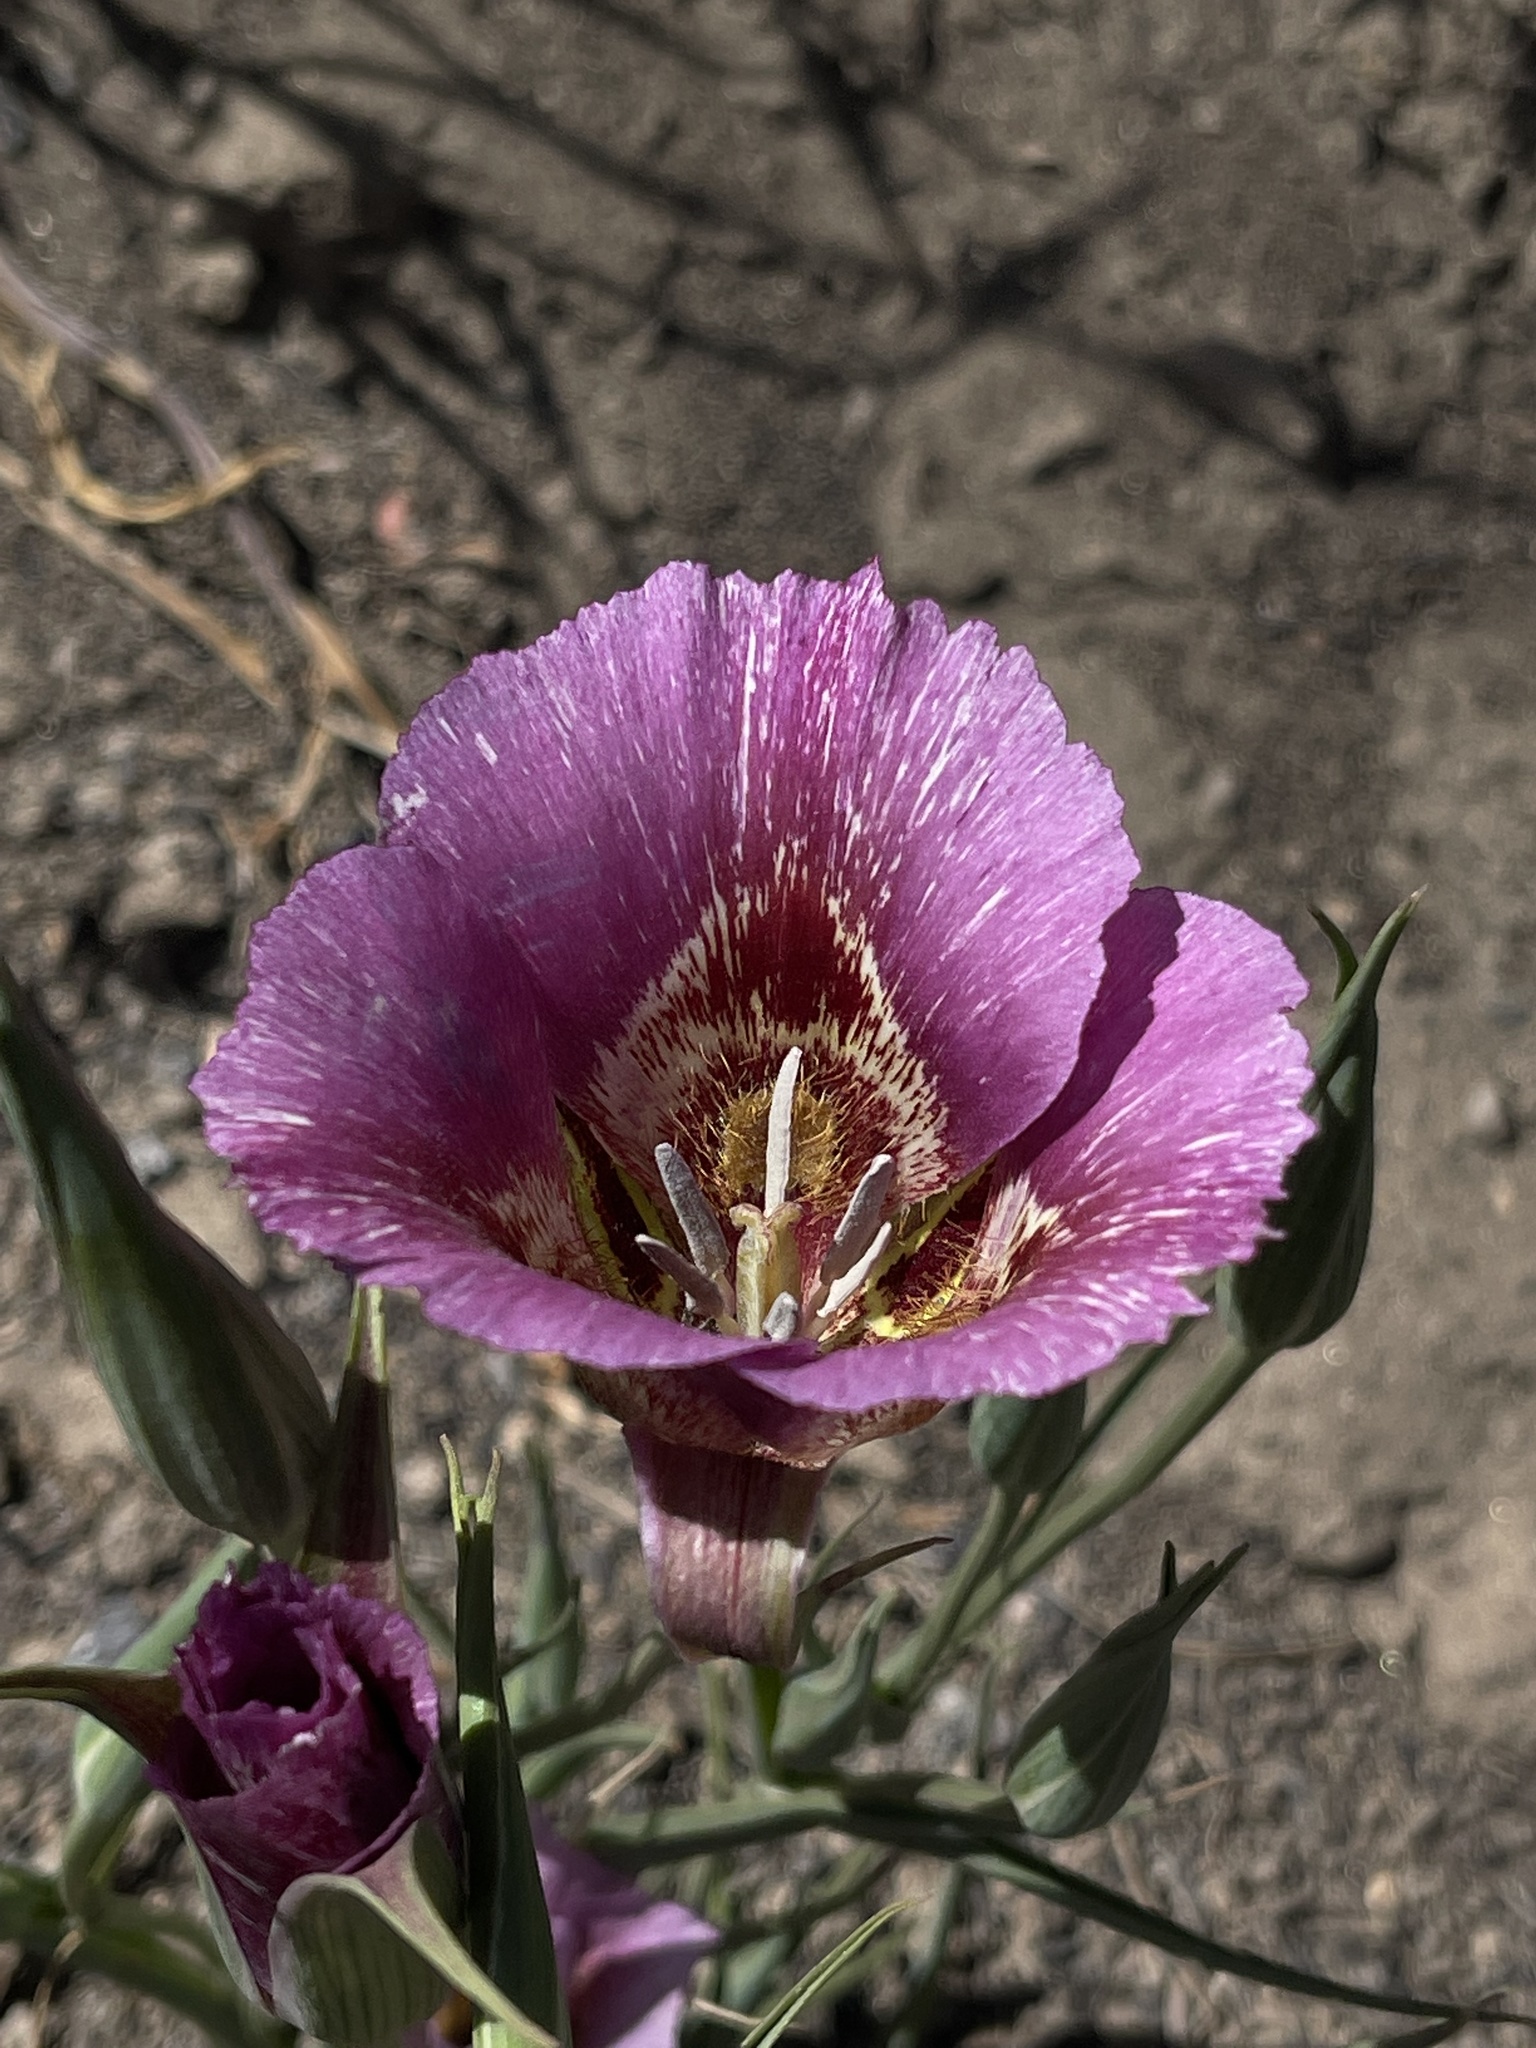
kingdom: Plantae
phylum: Tracheophyta
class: Liliopsida
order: Liliales
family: Liliaceae
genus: Calochortus
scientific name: Calochortus venustus
